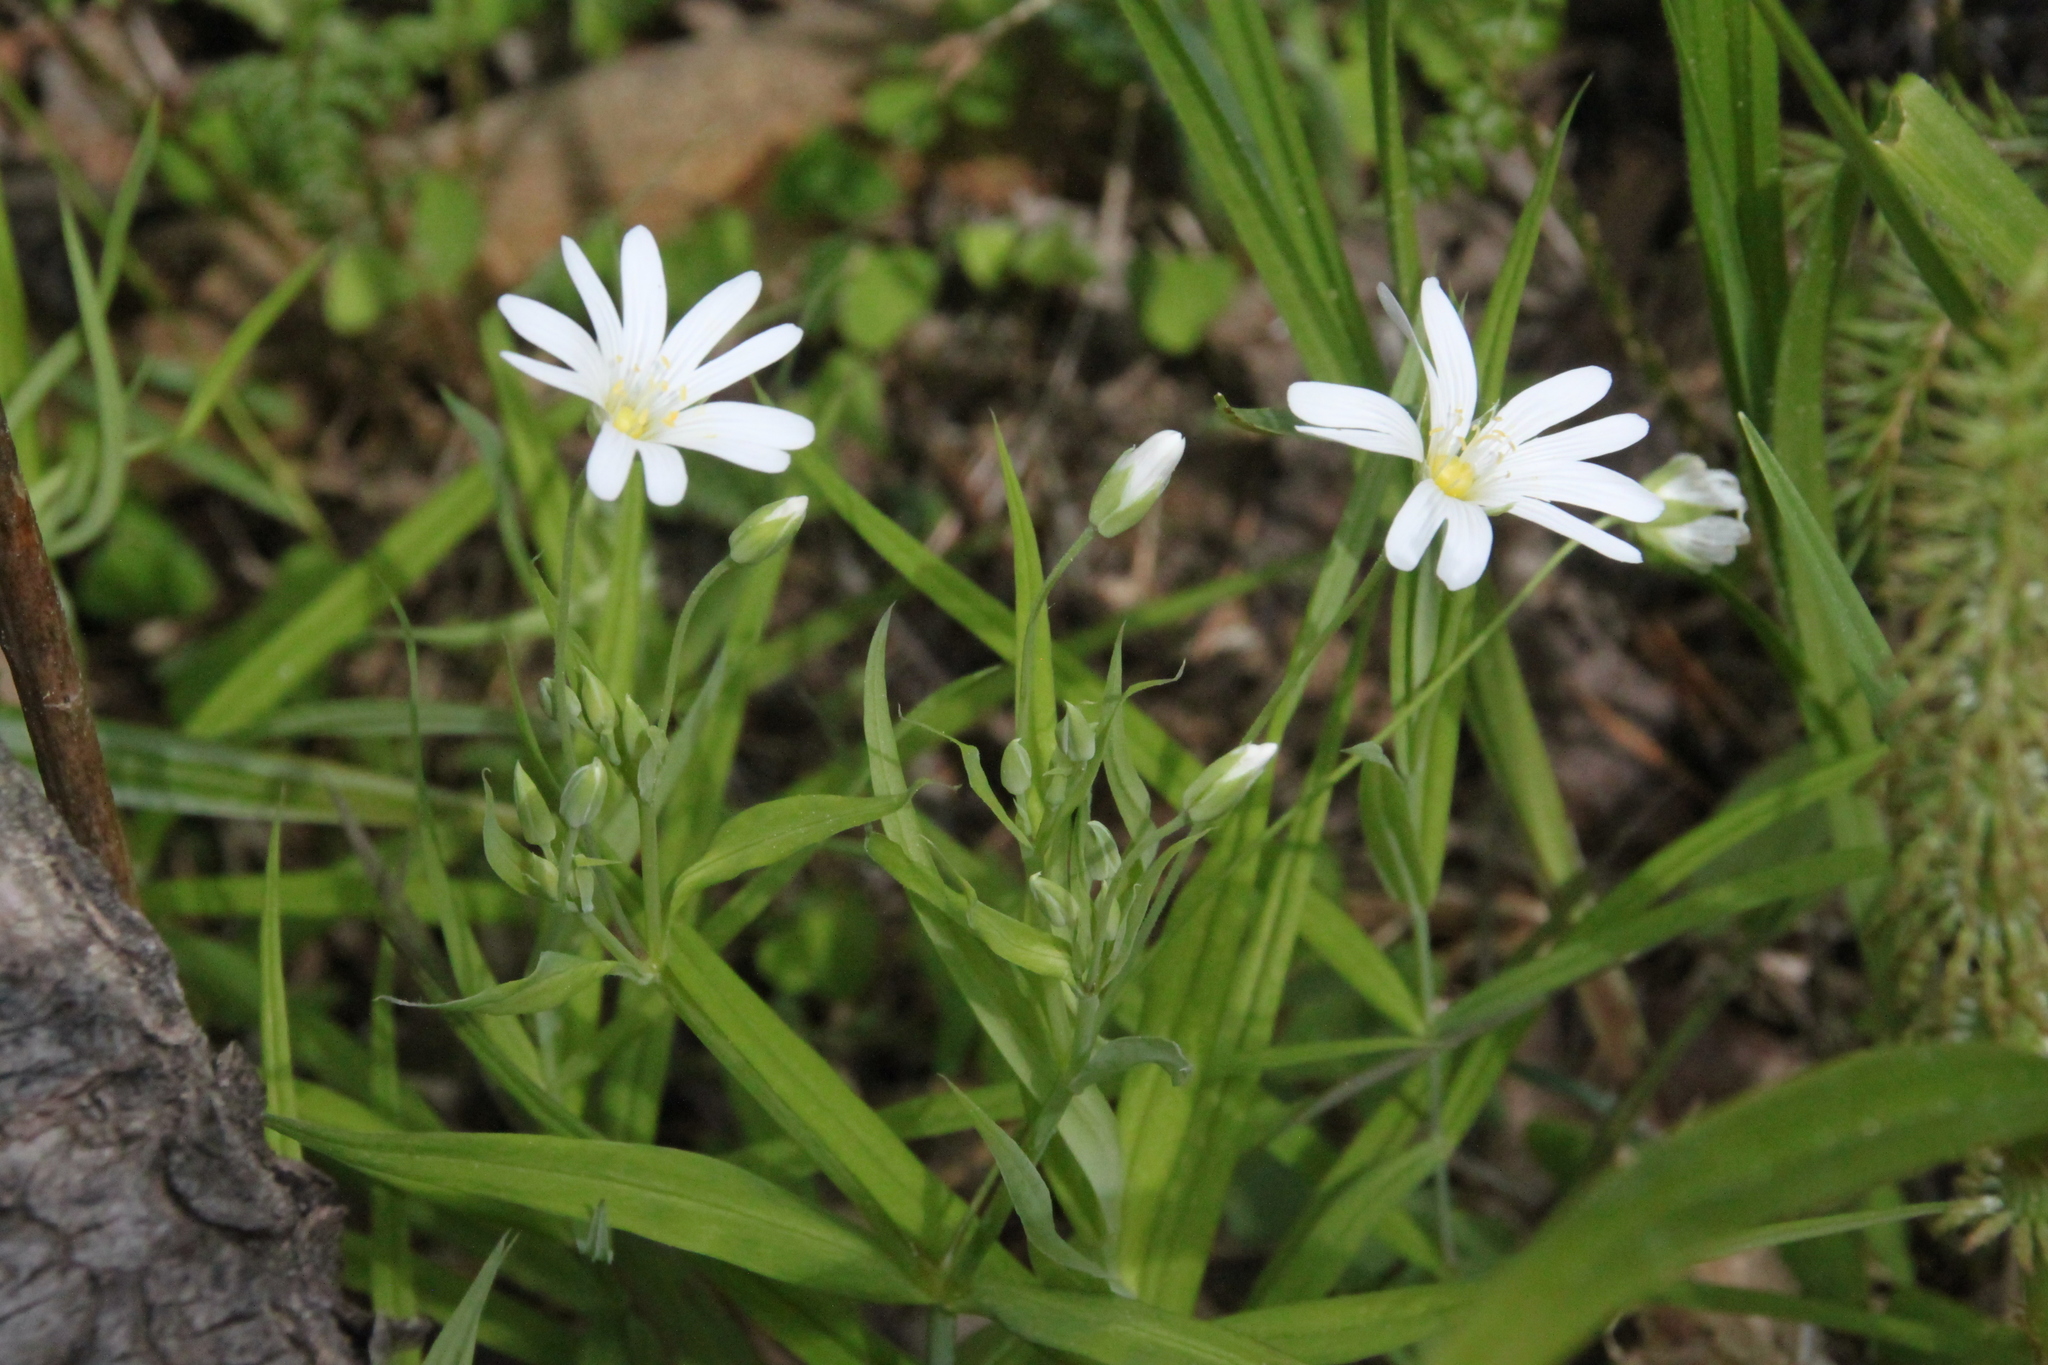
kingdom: Plantae
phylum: Tracheophyta
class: Magnoliopsida
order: Caryophyllales
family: Caryophyllaceae
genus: Rabelera
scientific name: Rabelera holostea
